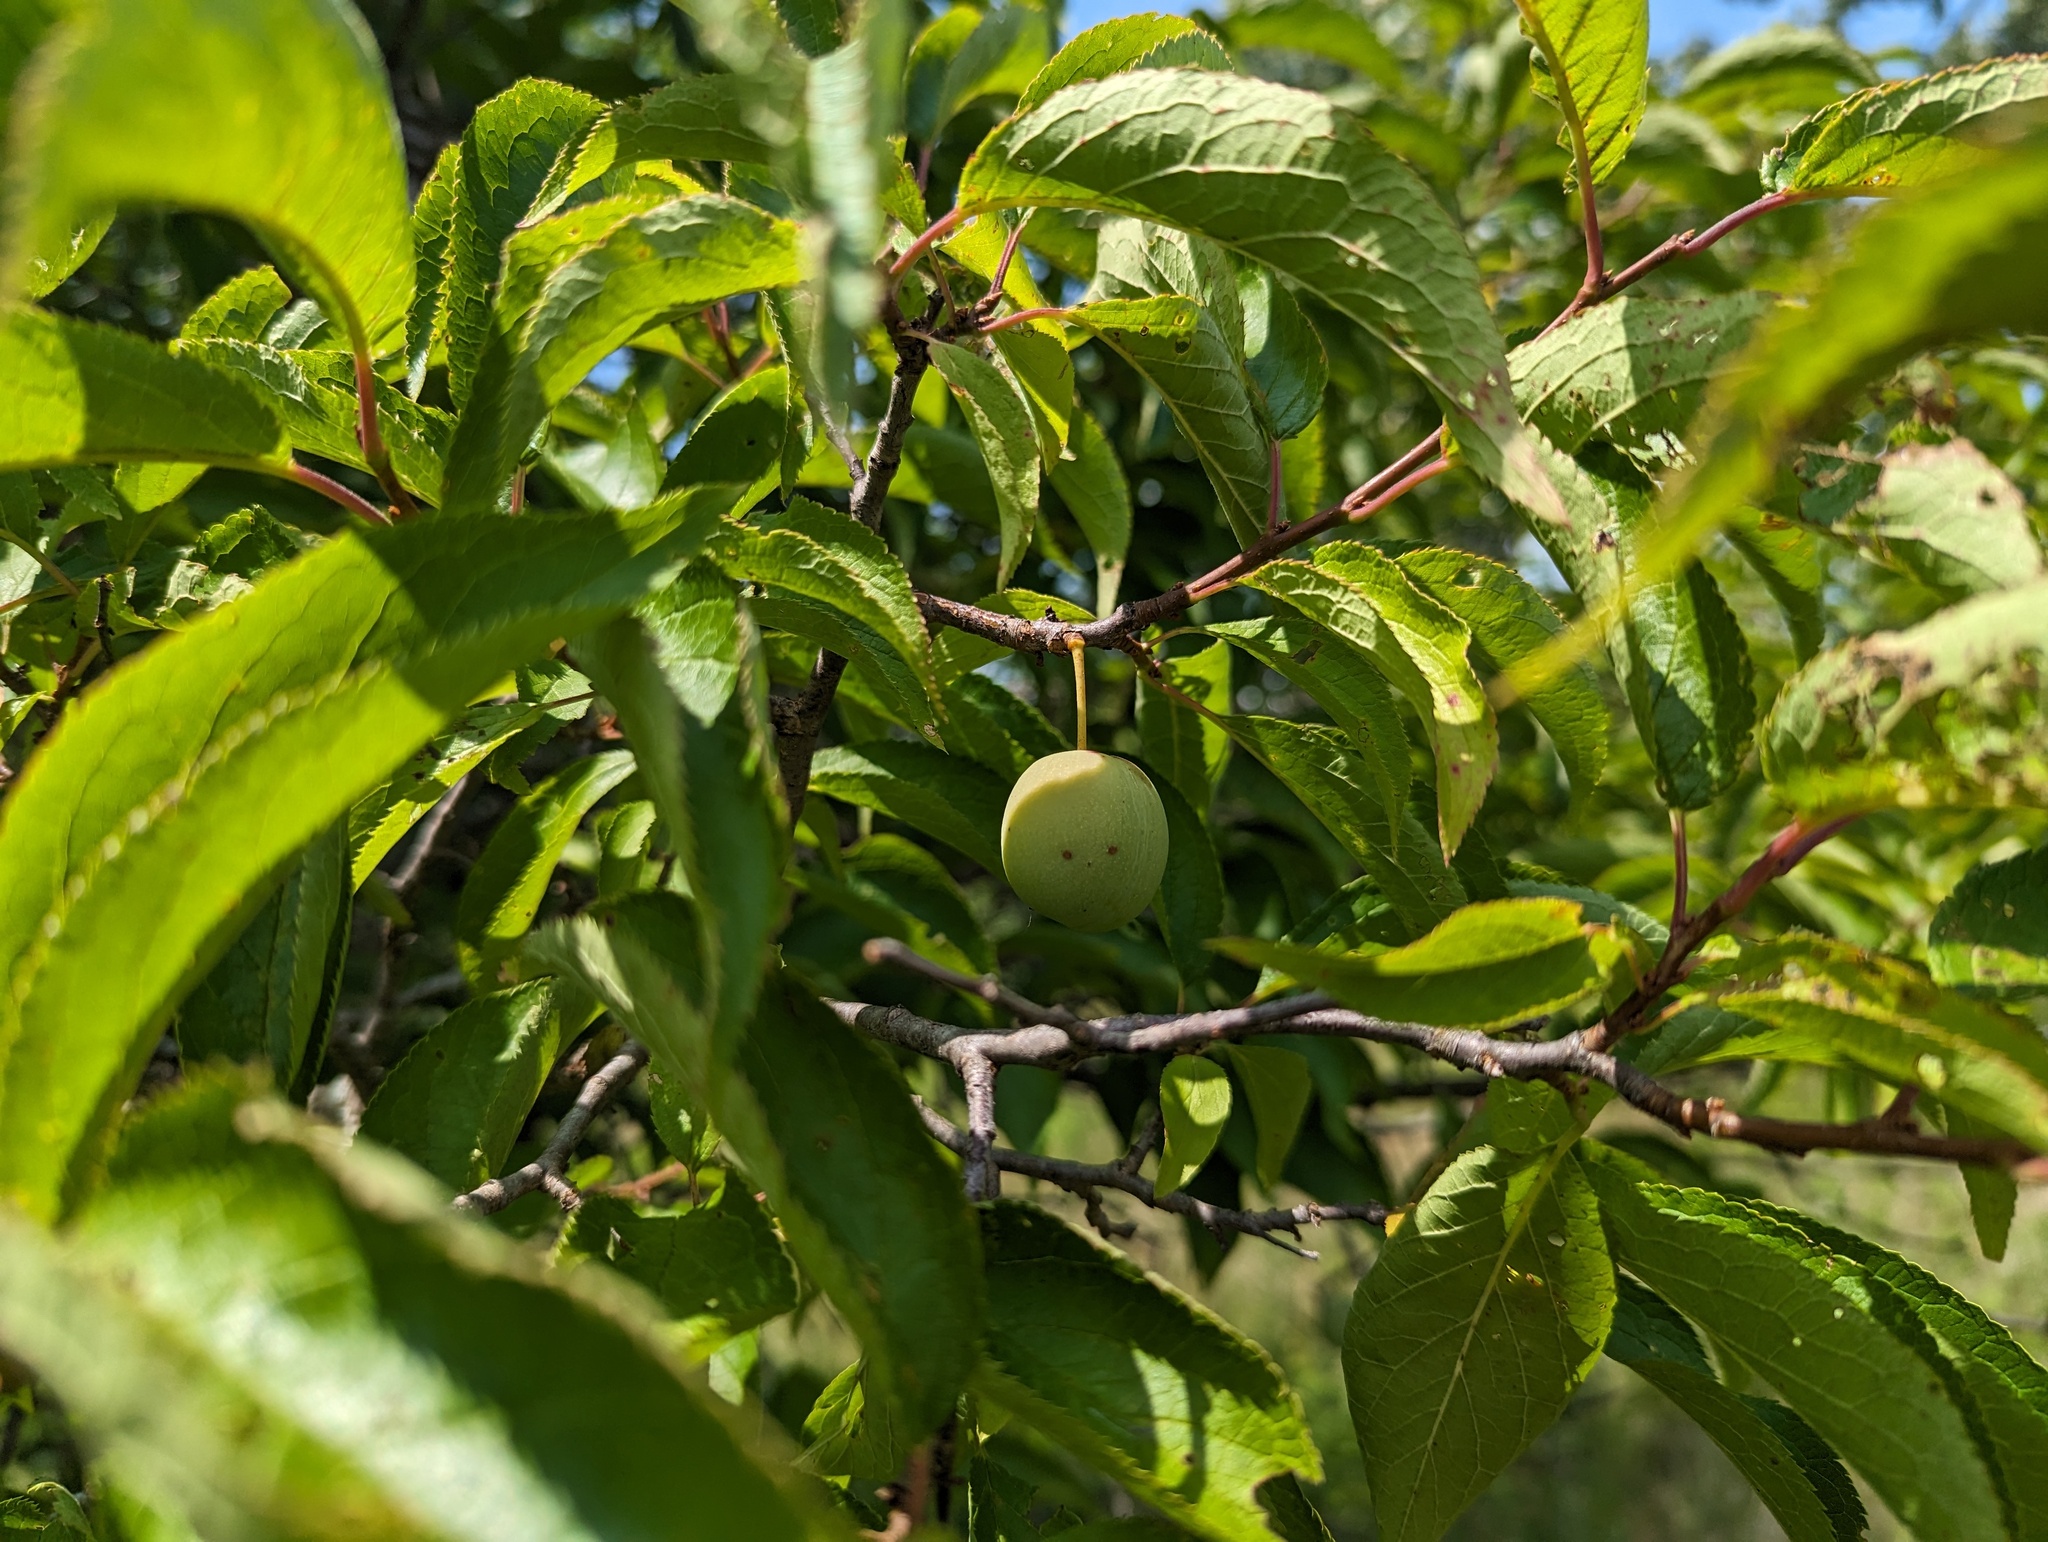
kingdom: Plantae
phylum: Tracheophyta
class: Magnoliopsida
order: Rosales
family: Rosaceae
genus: Prunus
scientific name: Prunus nigra
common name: Black plum
